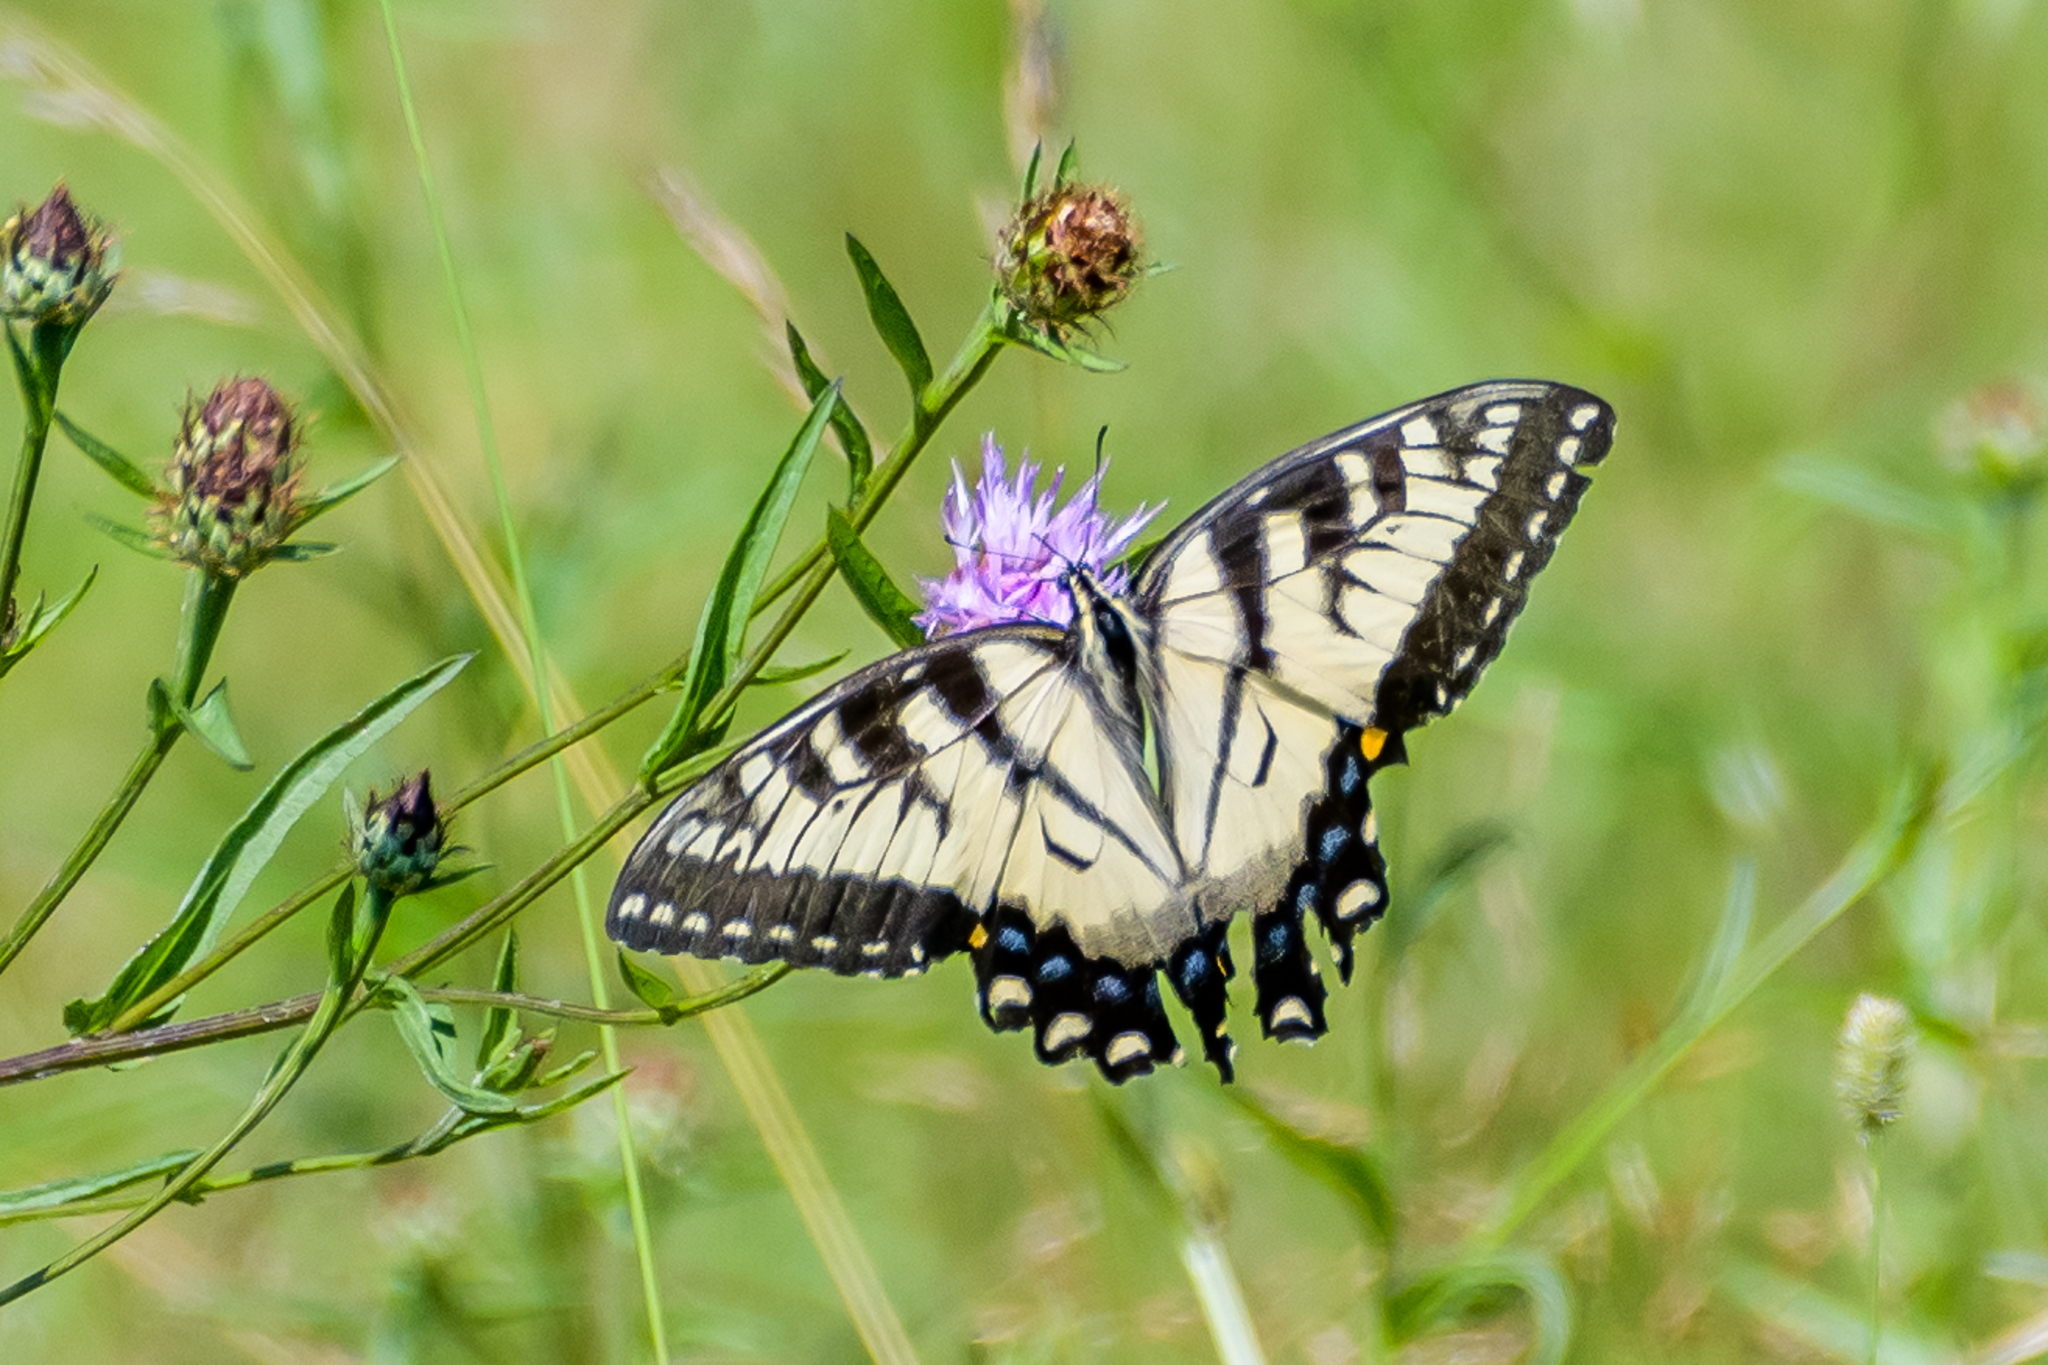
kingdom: Animalia
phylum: Arthropoda
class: Insecta
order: Lepidoptera
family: Papilionidae
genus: Papilio
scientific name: Papilio glaucus
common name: Tiger swallowtail
